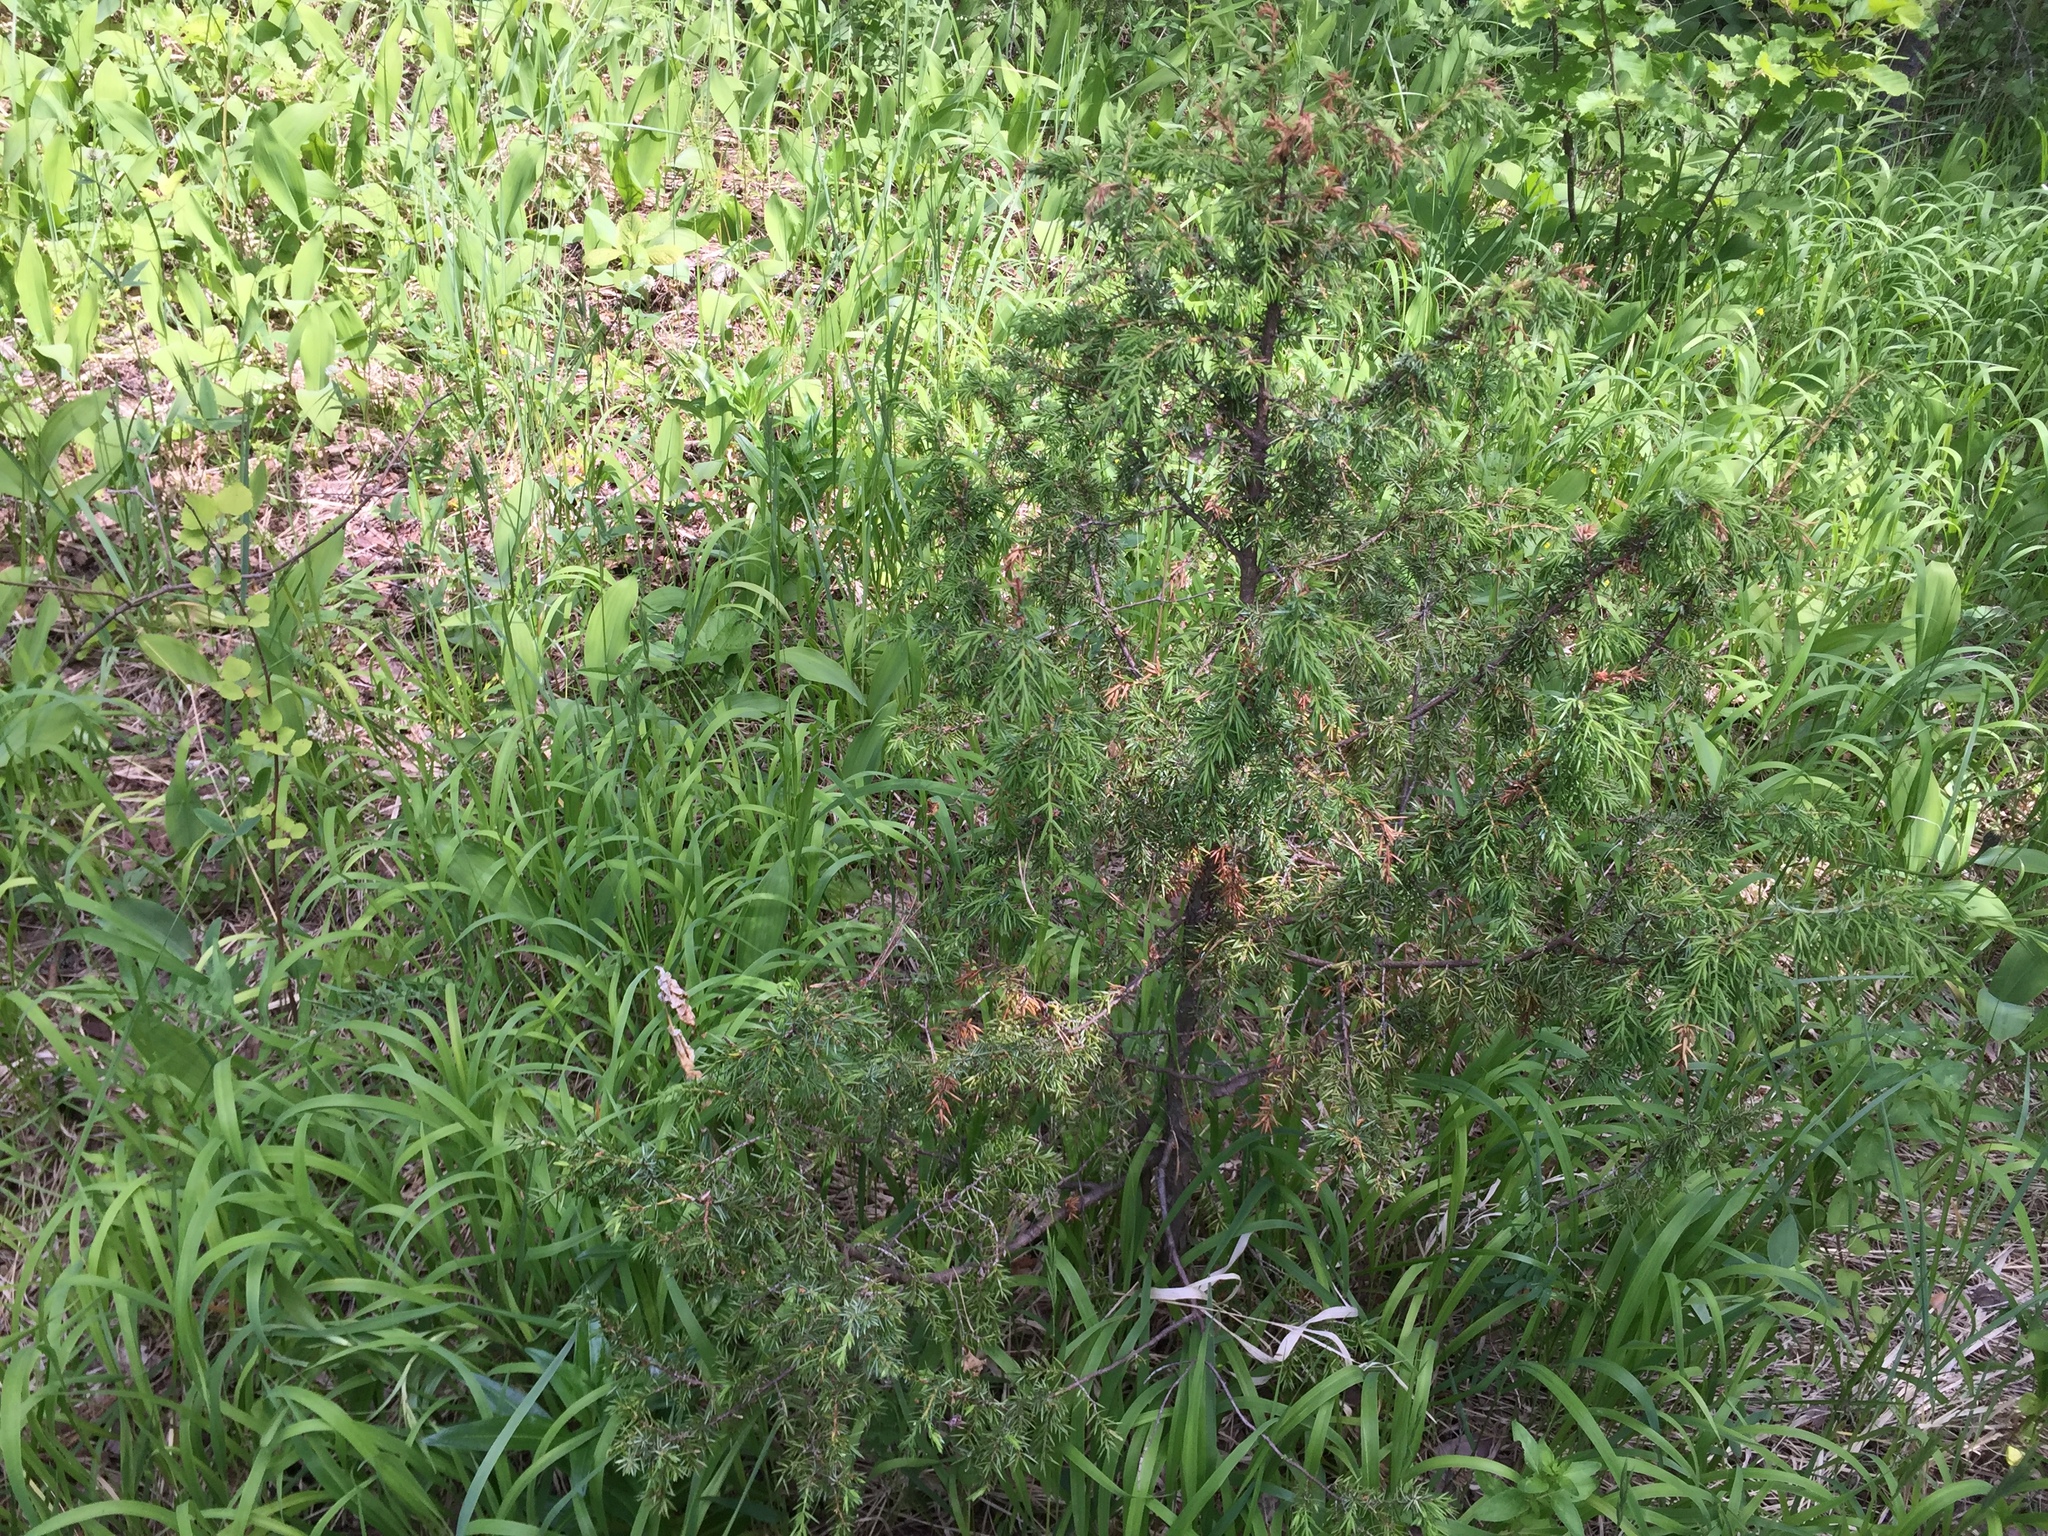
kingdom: Plantae
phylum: Tracheophyta
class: Pinopsida
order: Pinales
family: Cupressaceae
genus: Juniperus
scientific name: Juniperus communis
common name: Common juniper
